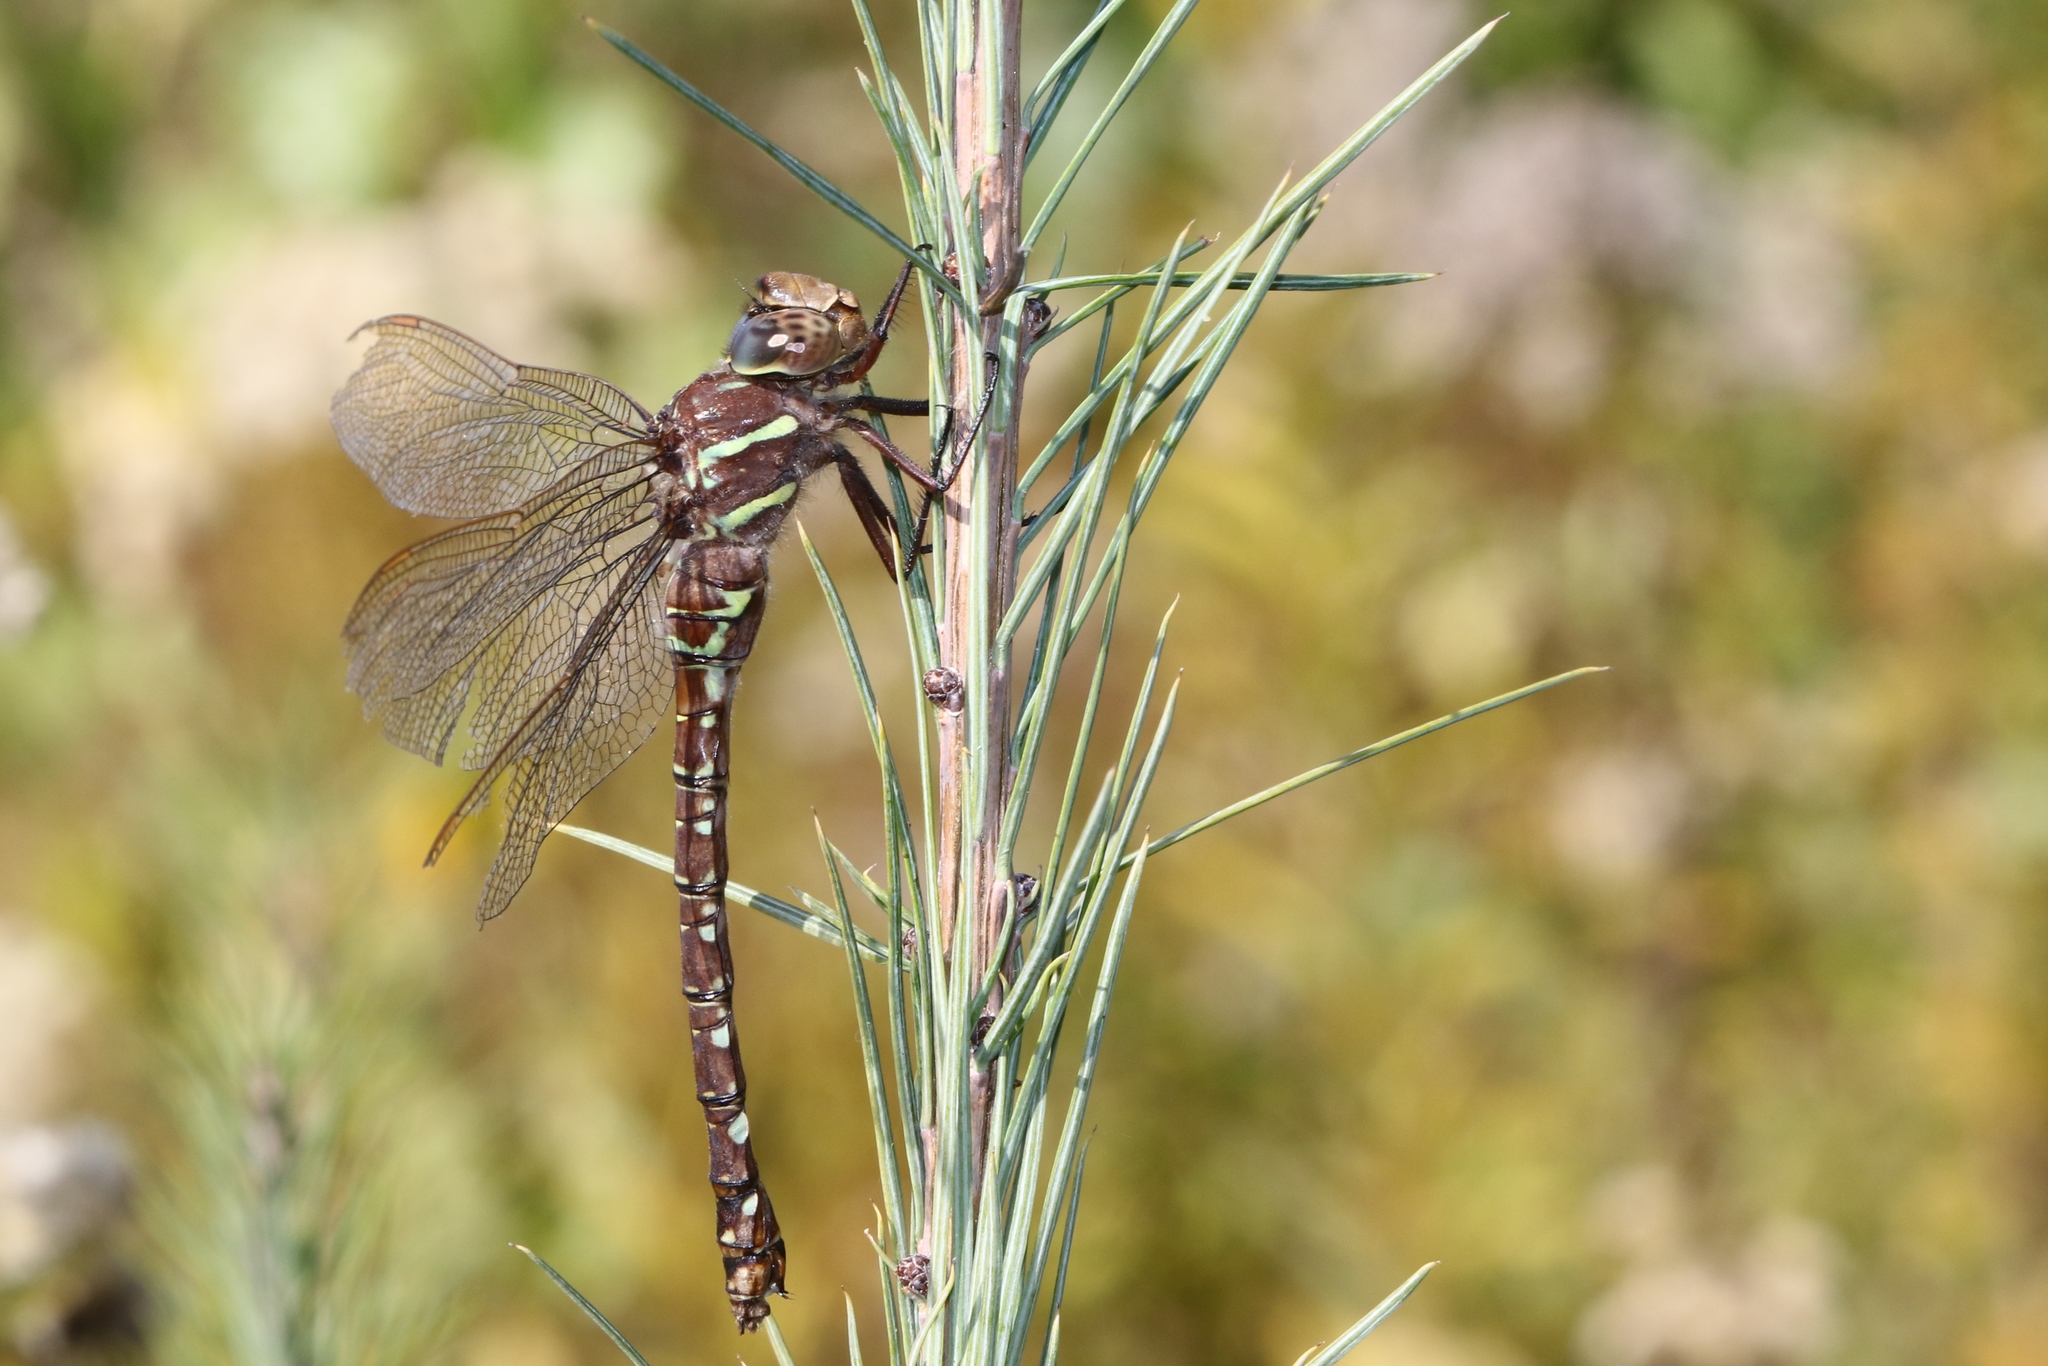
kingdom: Animalia
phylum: Arthropoda
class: Insecta
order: Odonata
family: Aeshnidae
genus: Aeshna
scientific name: Aeshna umbrosa
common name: Shadow darner
